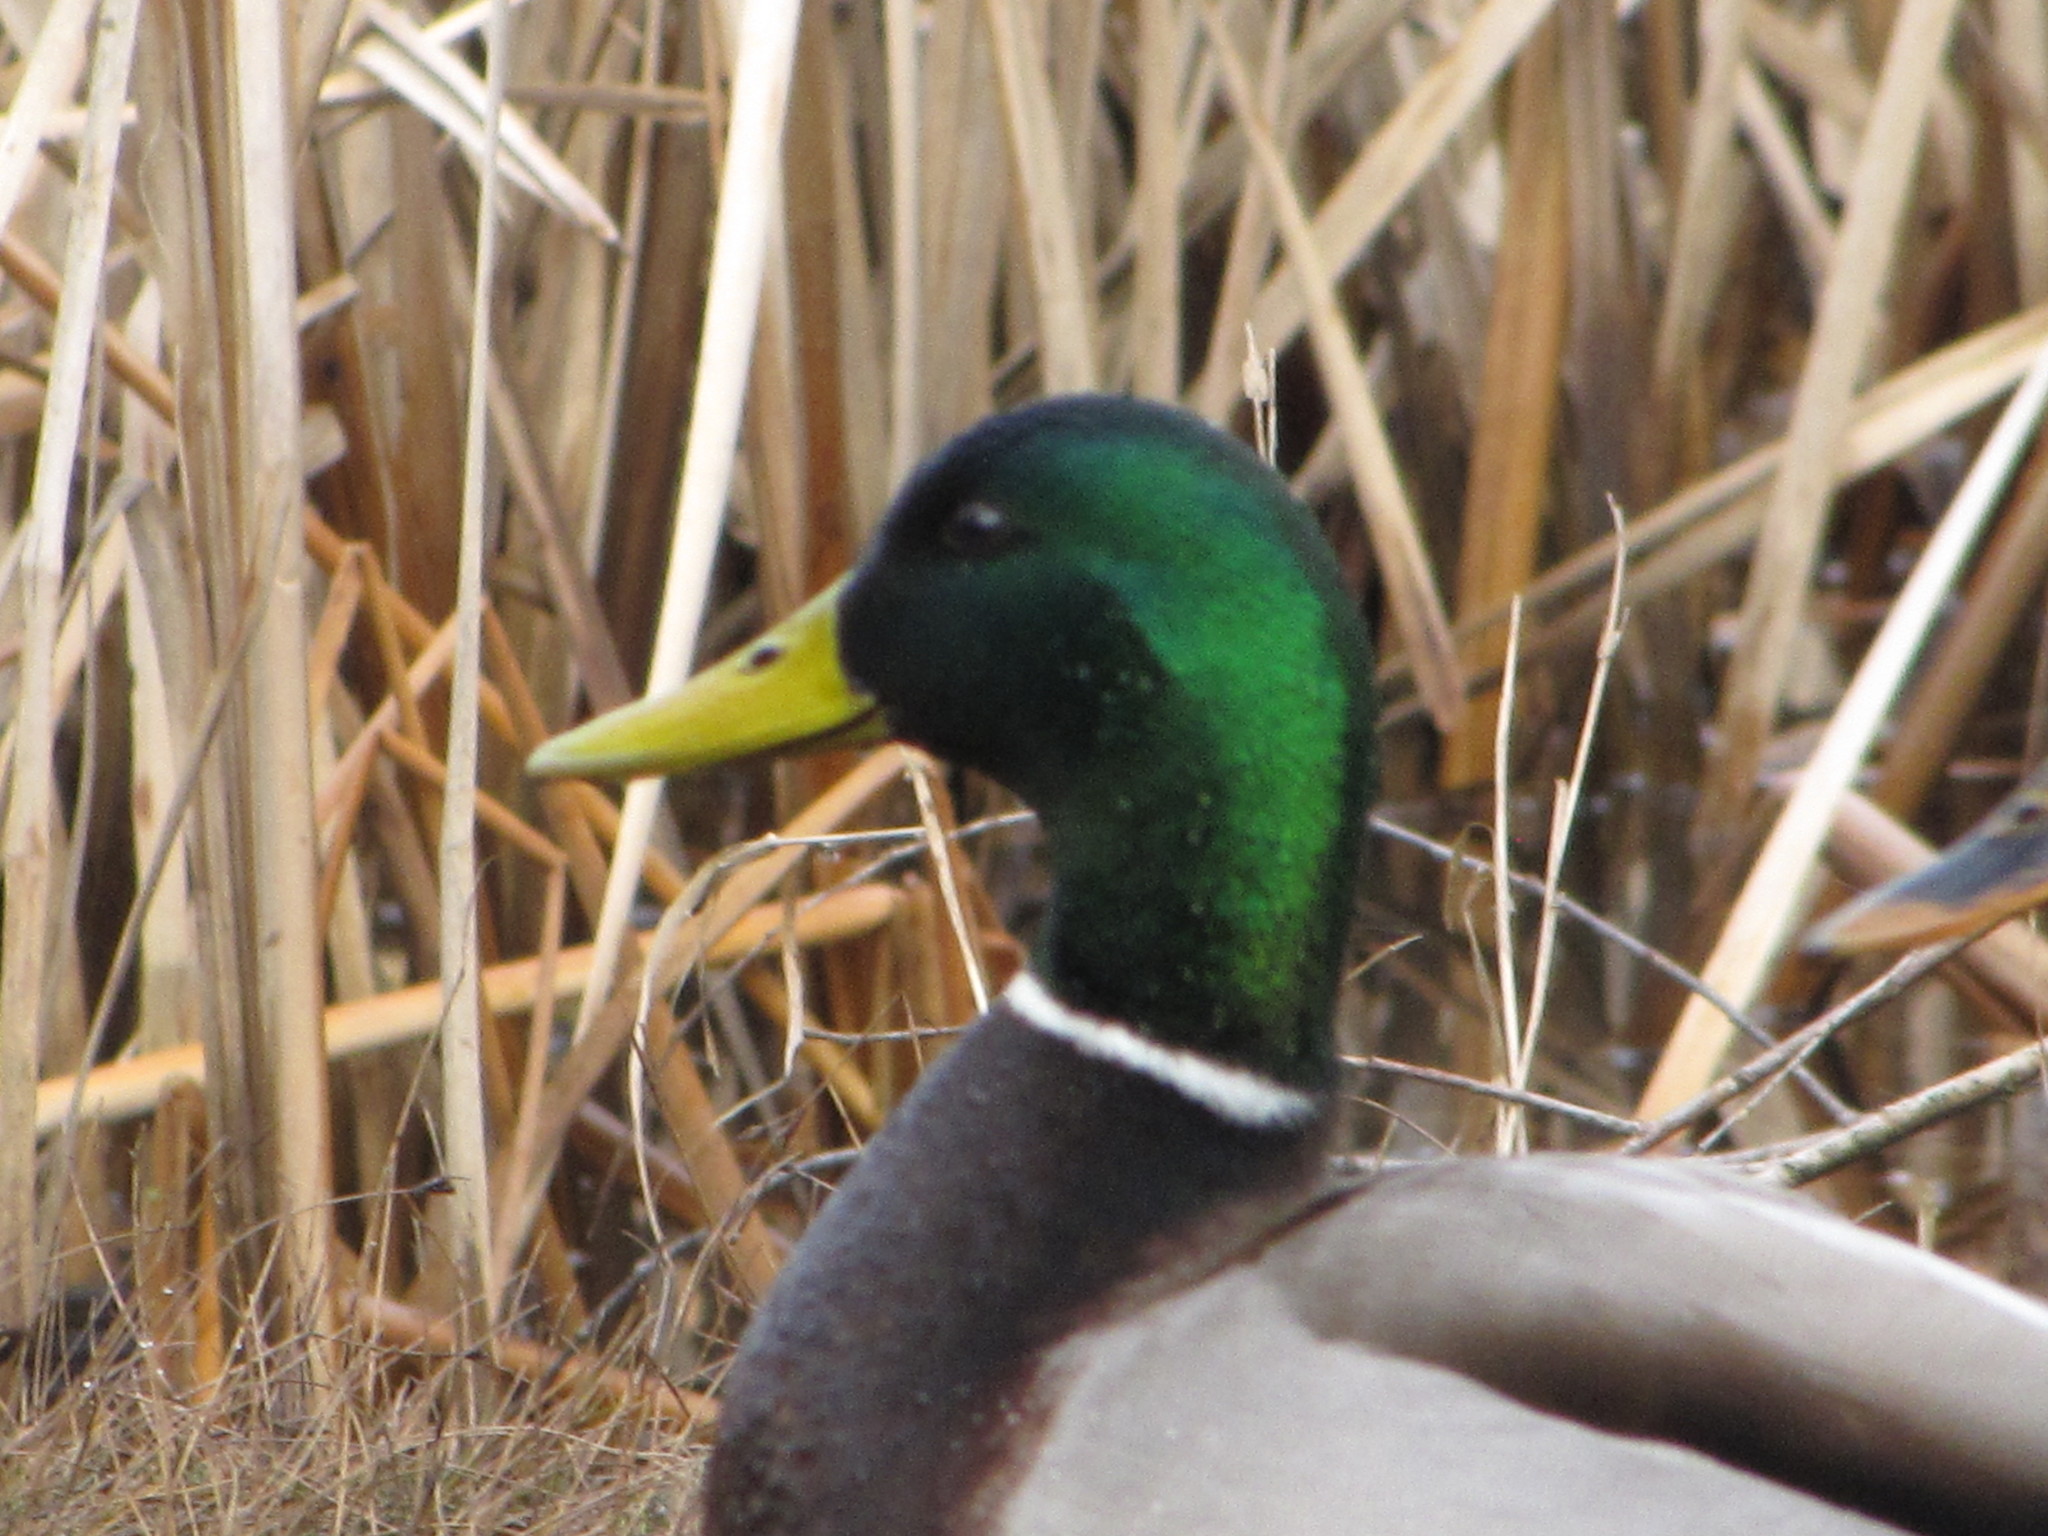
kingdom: Animalia
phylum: Chordata
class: Aves
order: Anseriformes
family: Anatidae
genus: Anas
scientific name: Anas platyrhynchos
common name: Mallard
